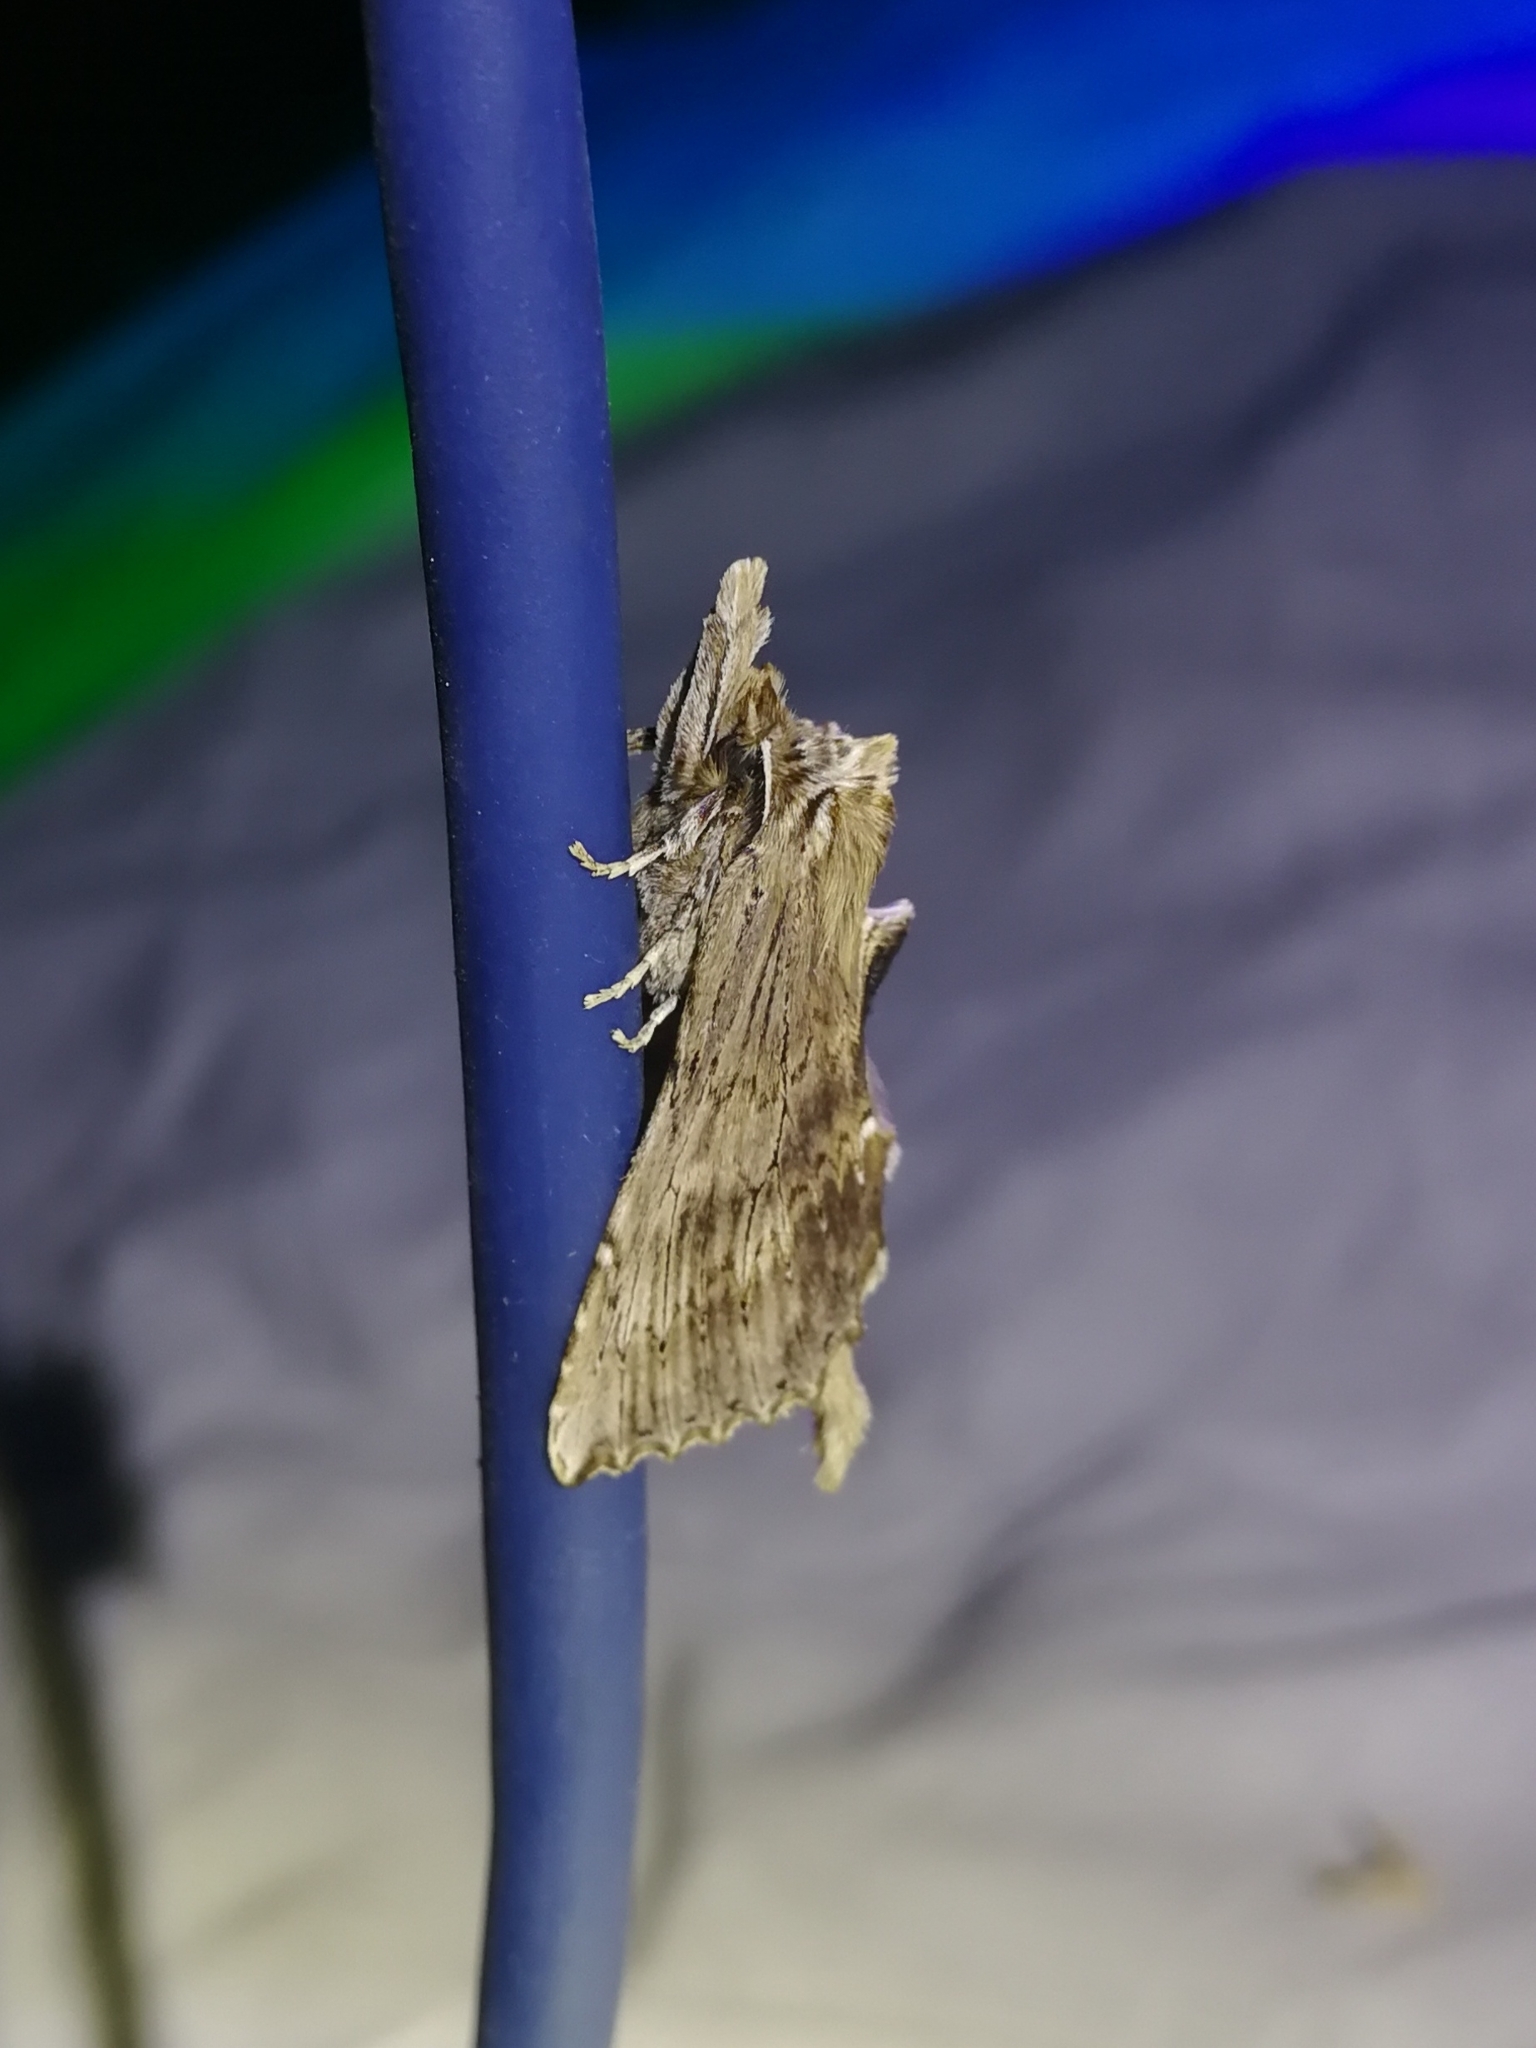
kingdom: Animalia
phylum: Arthropoda
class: Insecta
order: Lepidoptera
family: Notodontidae
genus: Pterostoma
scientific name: Pterostoma palpina
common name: Pale prominent
